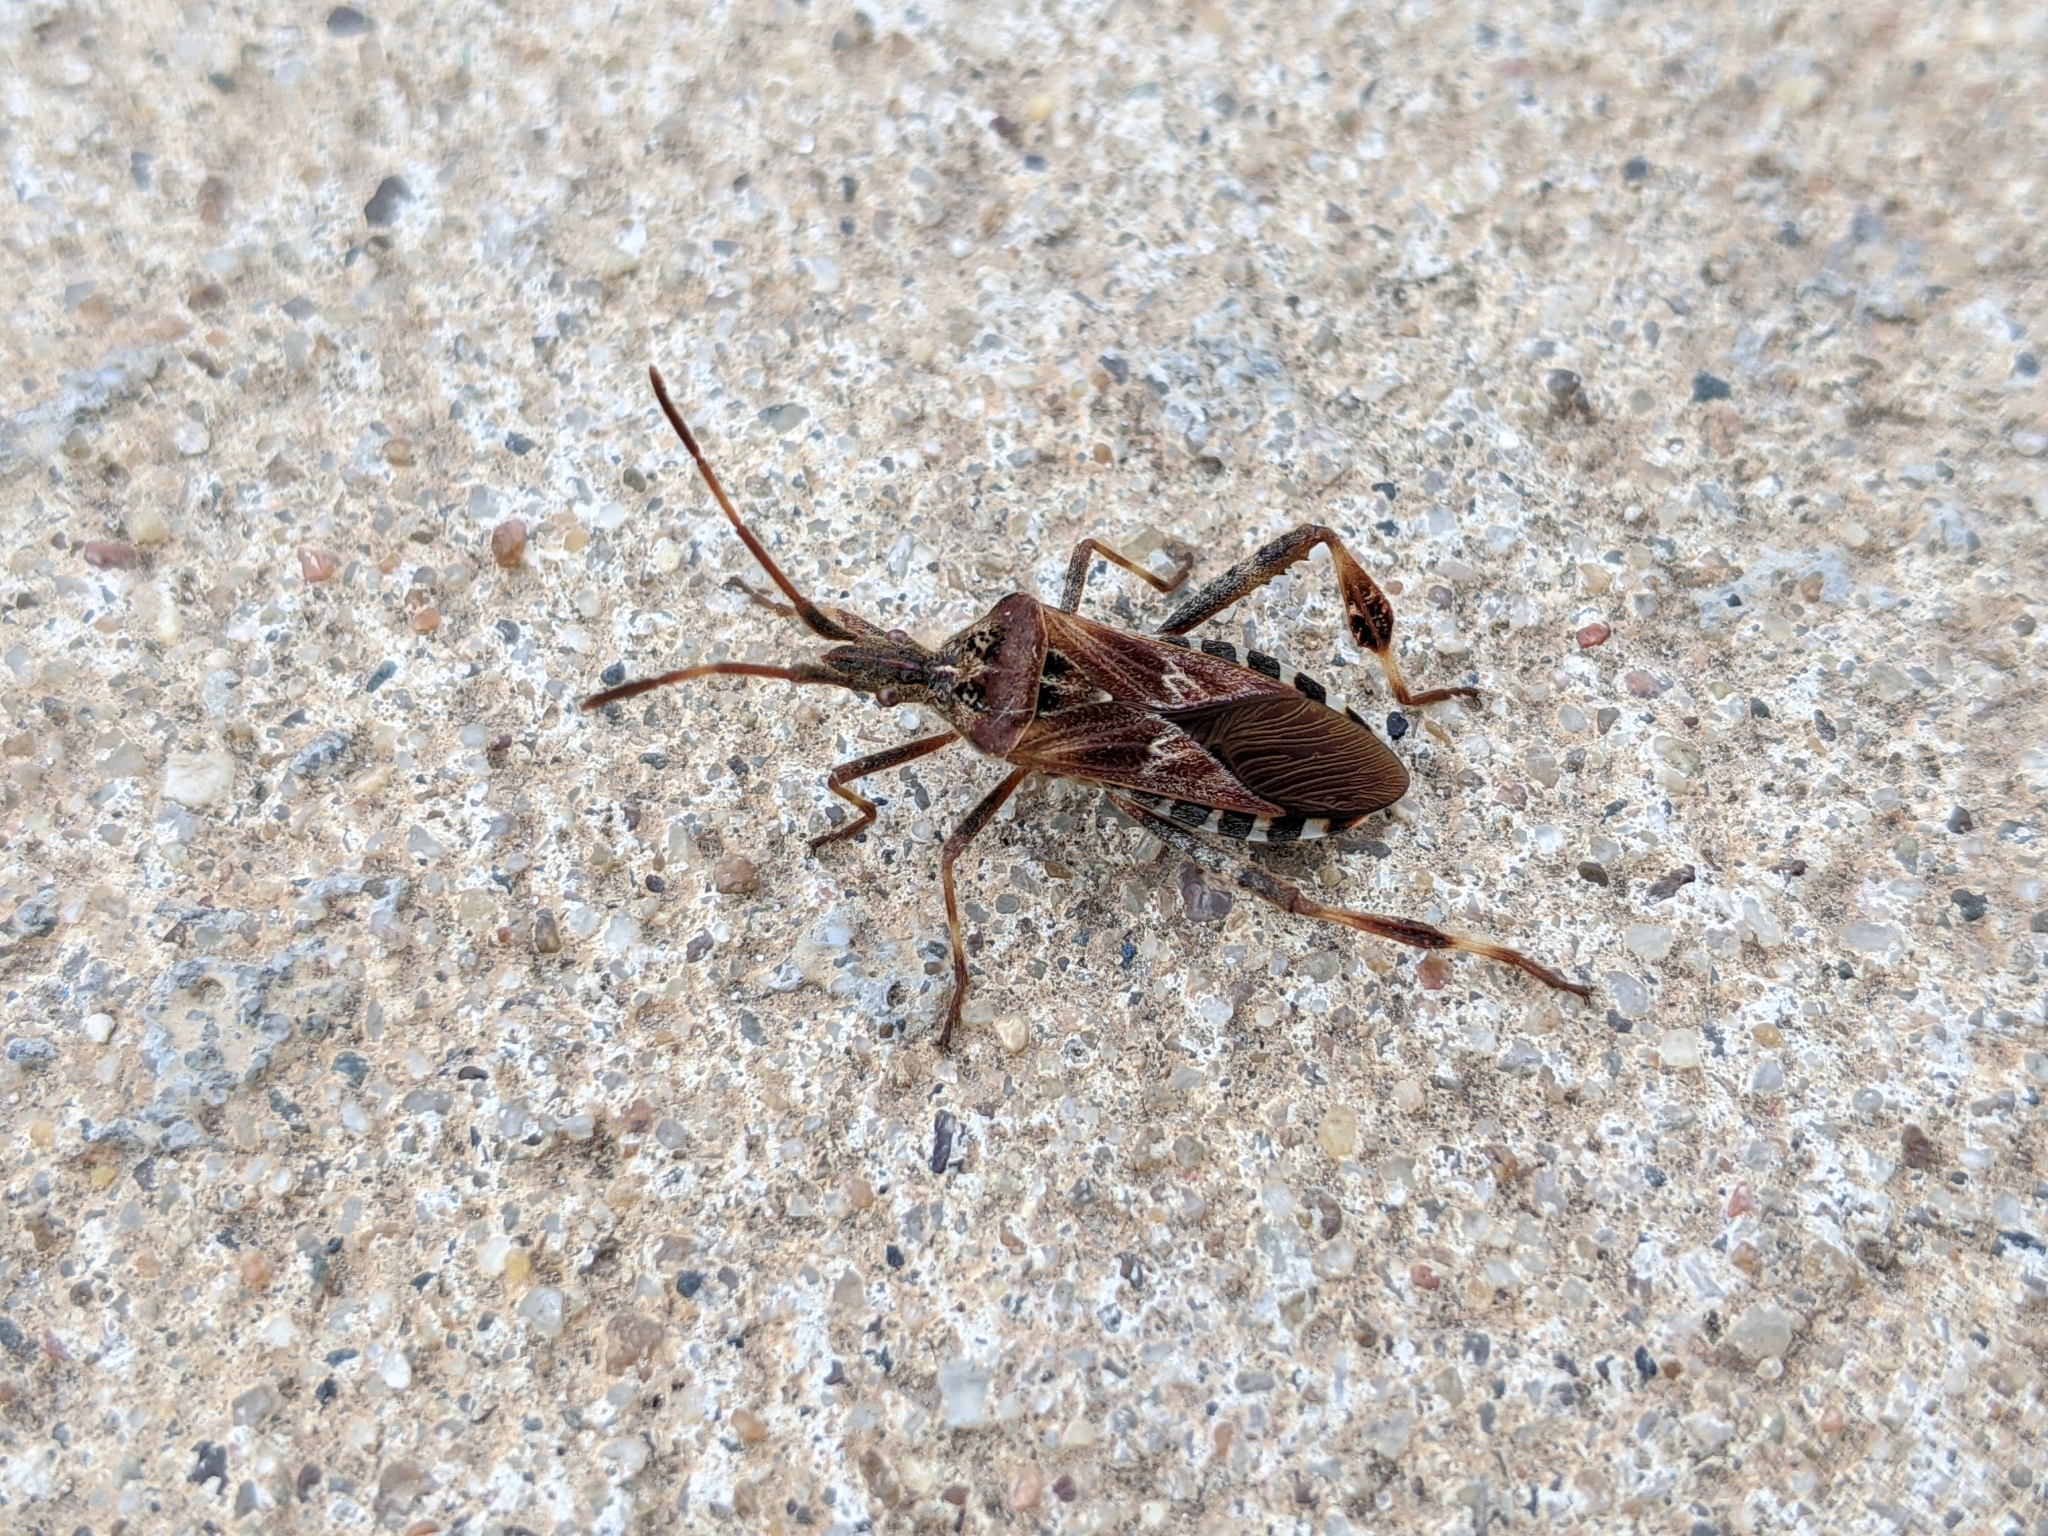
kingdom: Animalia
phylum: Arthropoda
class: Insecta
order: Hemiptera
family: Coreidae
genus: Leptoglossus
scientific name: Leptoglossus occidentalis
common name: Western conifer-seed bug
